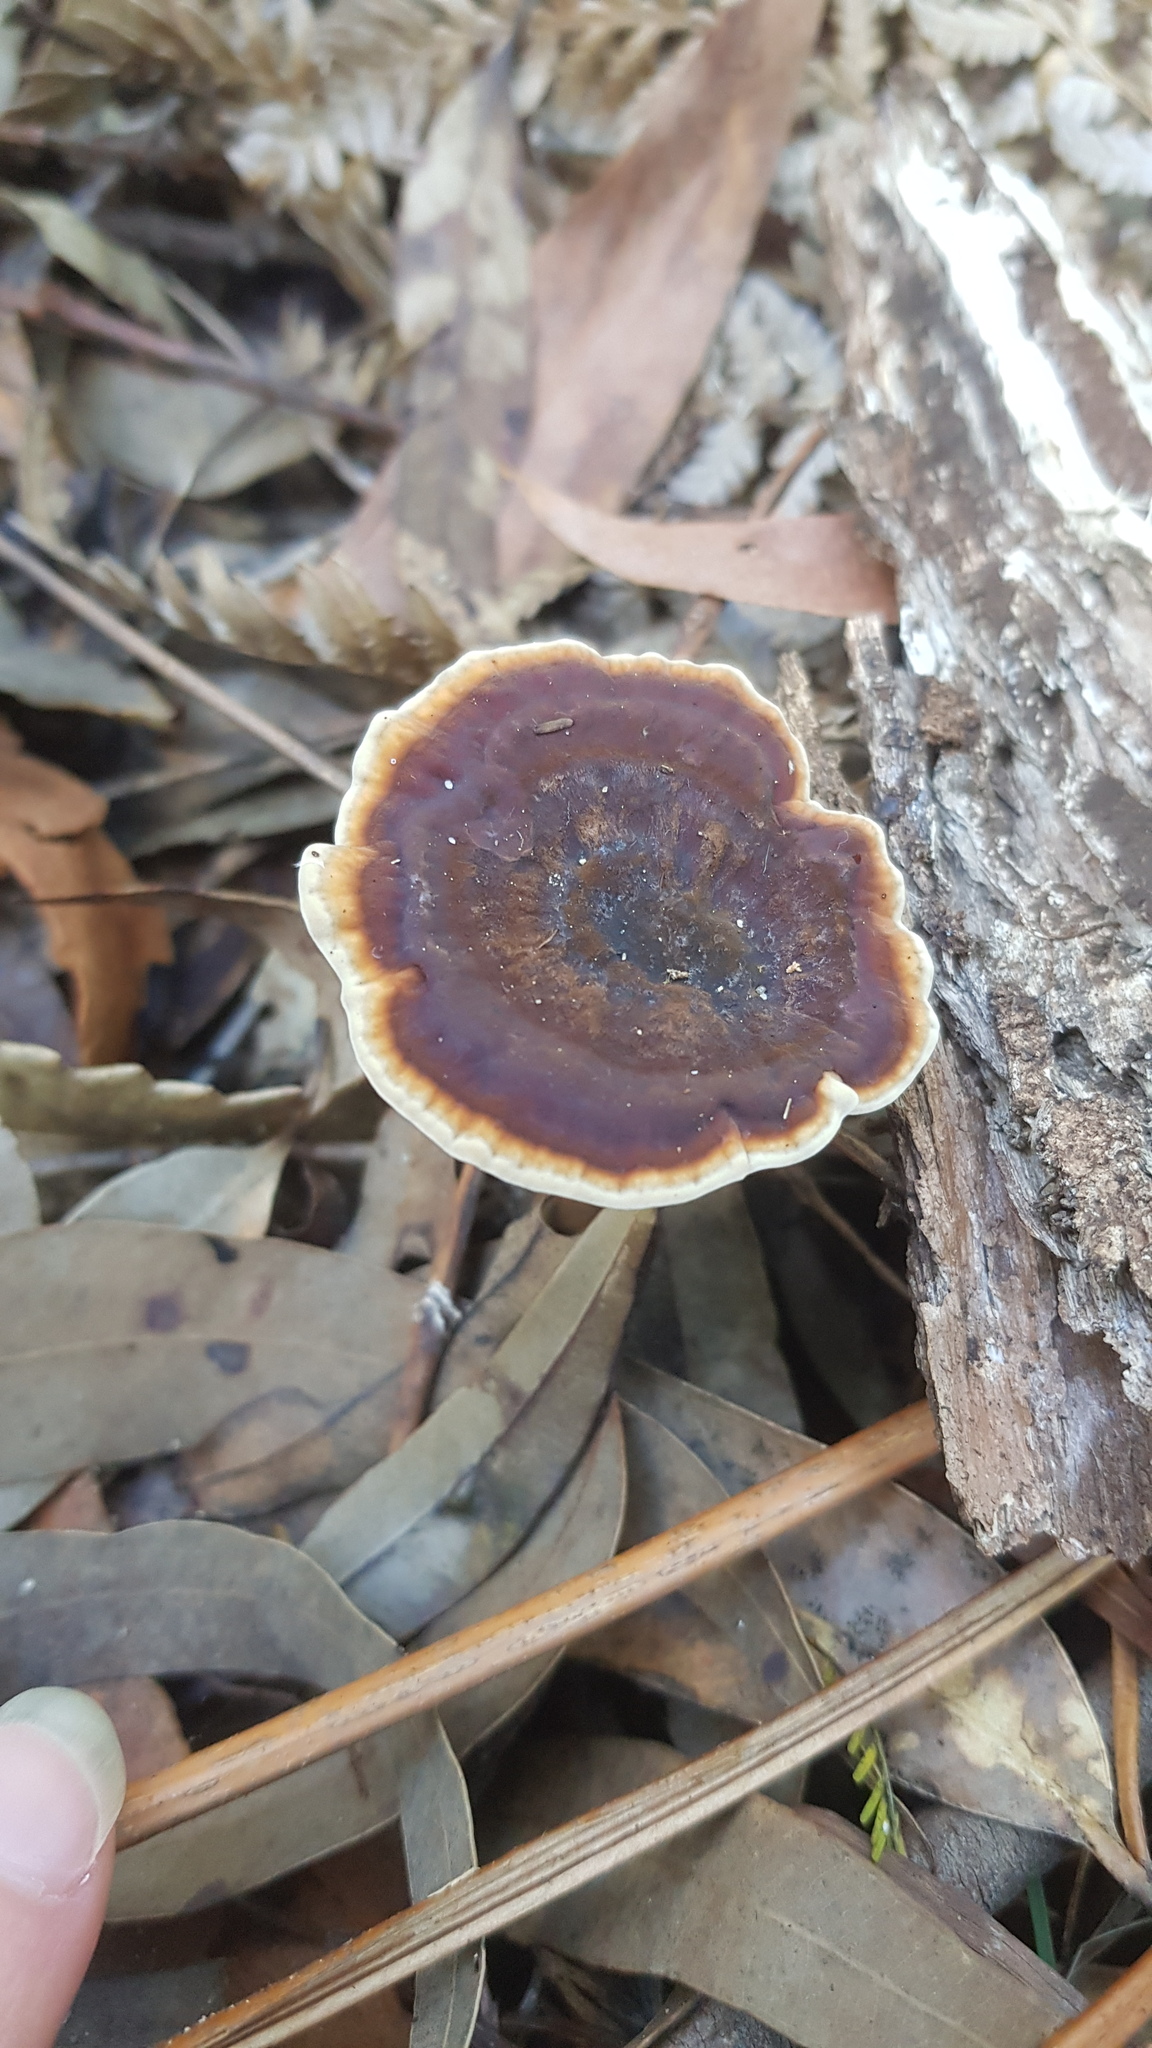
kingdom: Fungi
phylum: Basidiomycota
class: Agaricomycetes
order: Polyporales
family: Ganodermataceae
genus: Sanguinoderma
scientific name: Sanguinoderma rude
